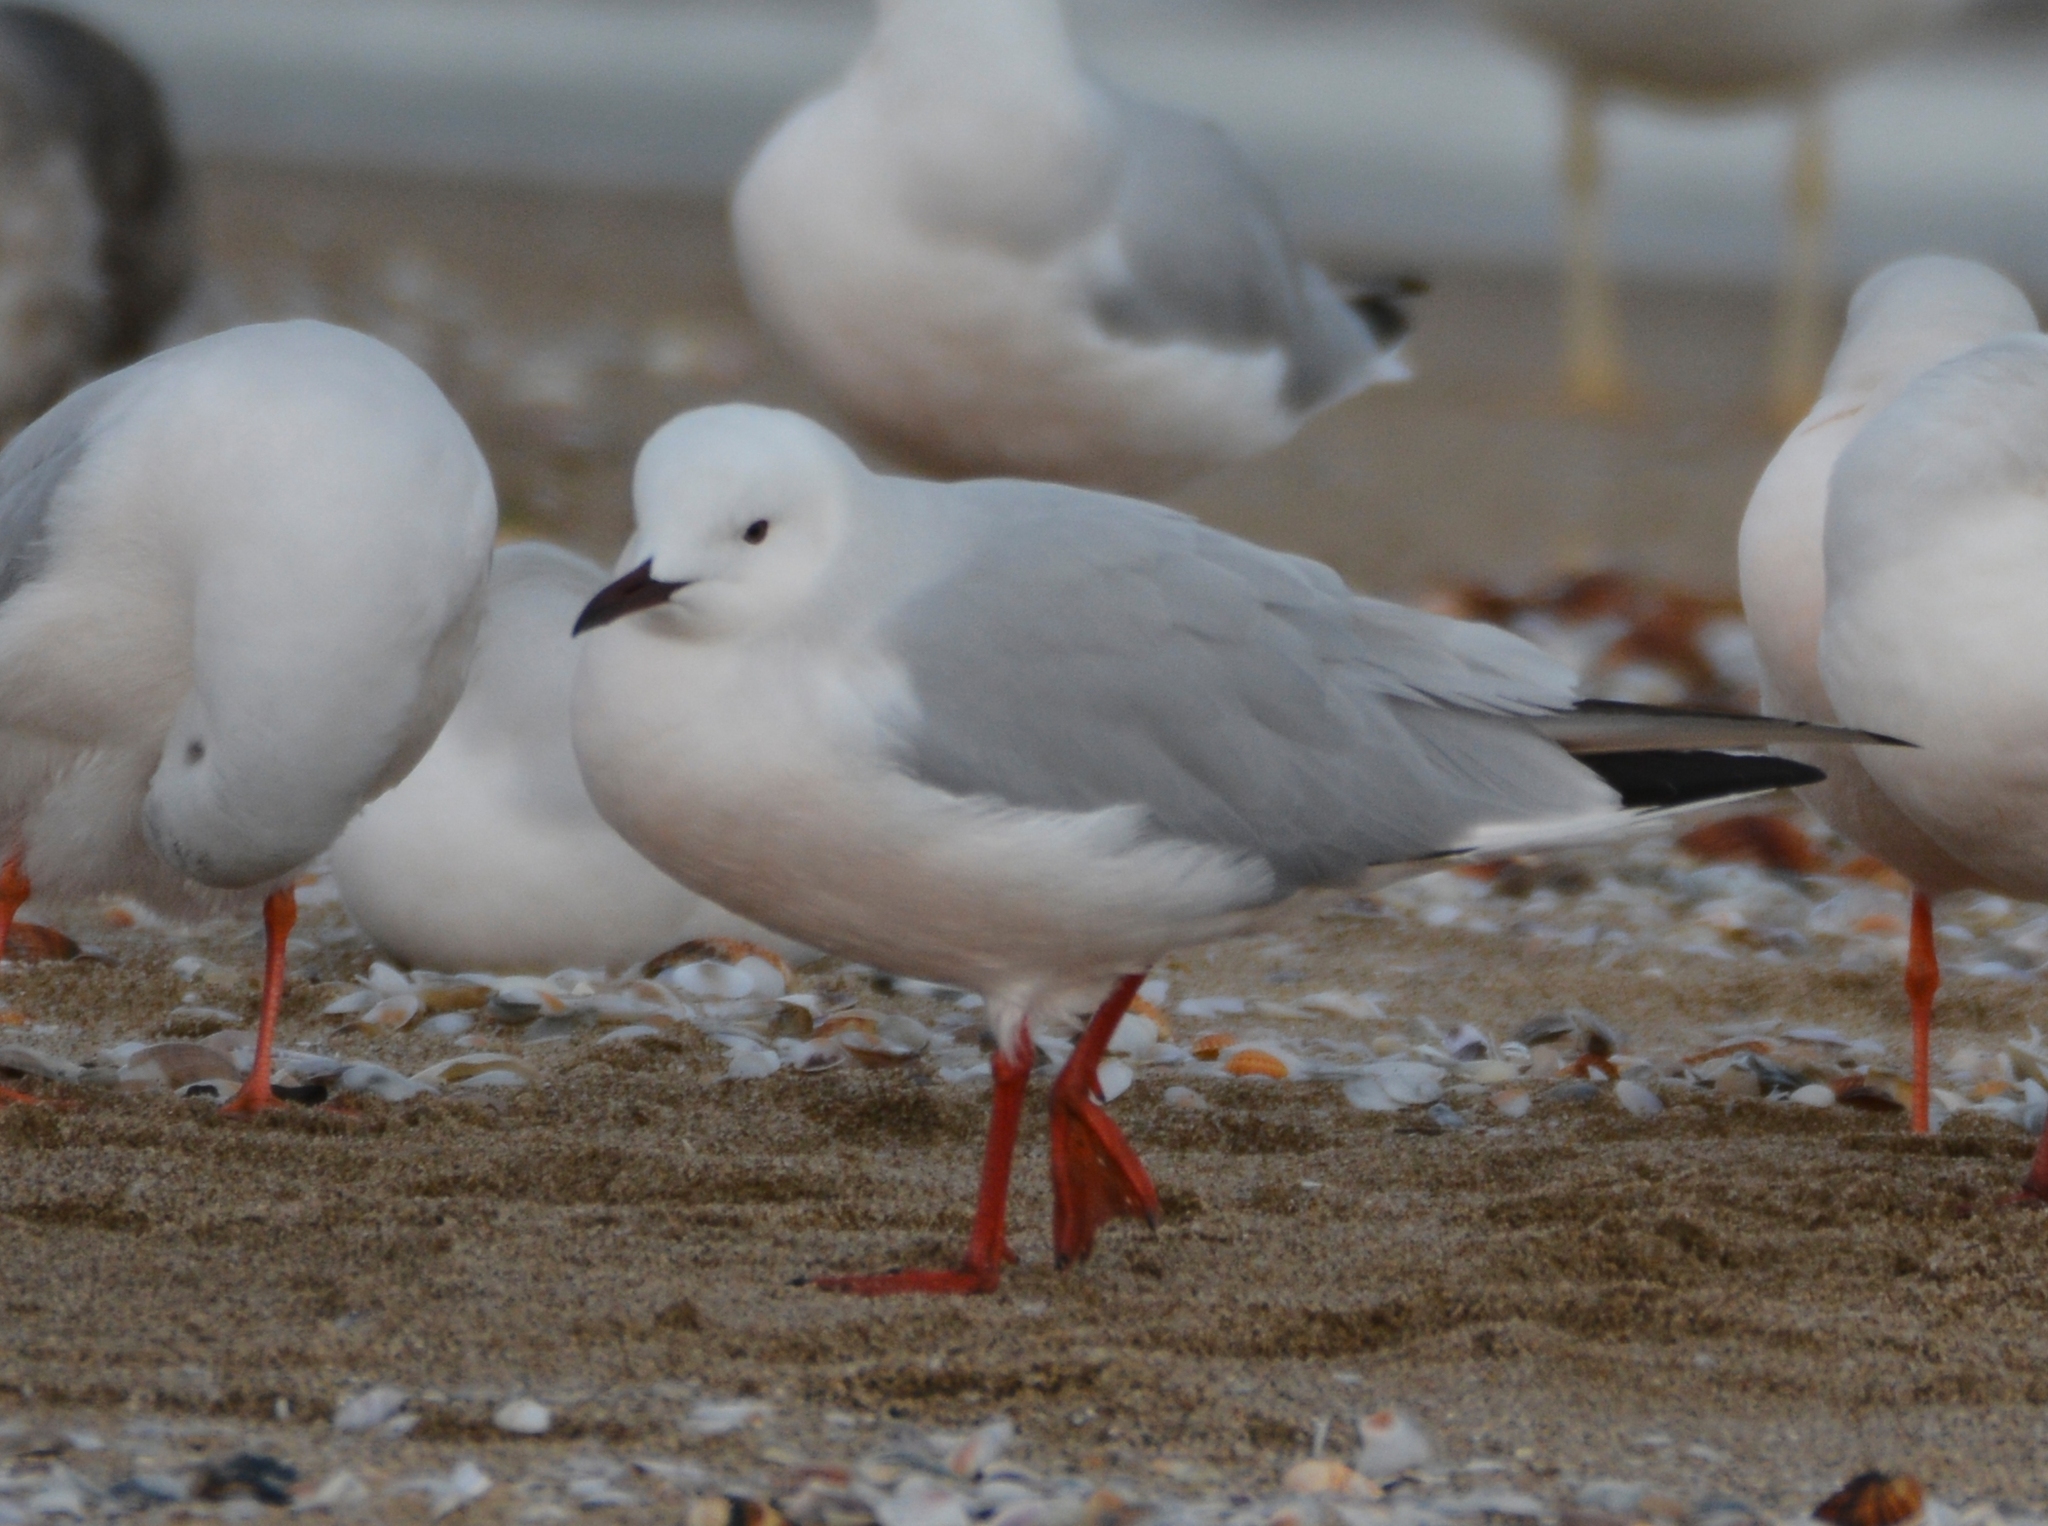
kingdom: Animalia
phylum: Chordata
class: Aves
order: Charadriiformes
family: Laridae
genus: Chroicocephalus
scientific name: Chroicocephalus genei
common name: Slender-billed gull
